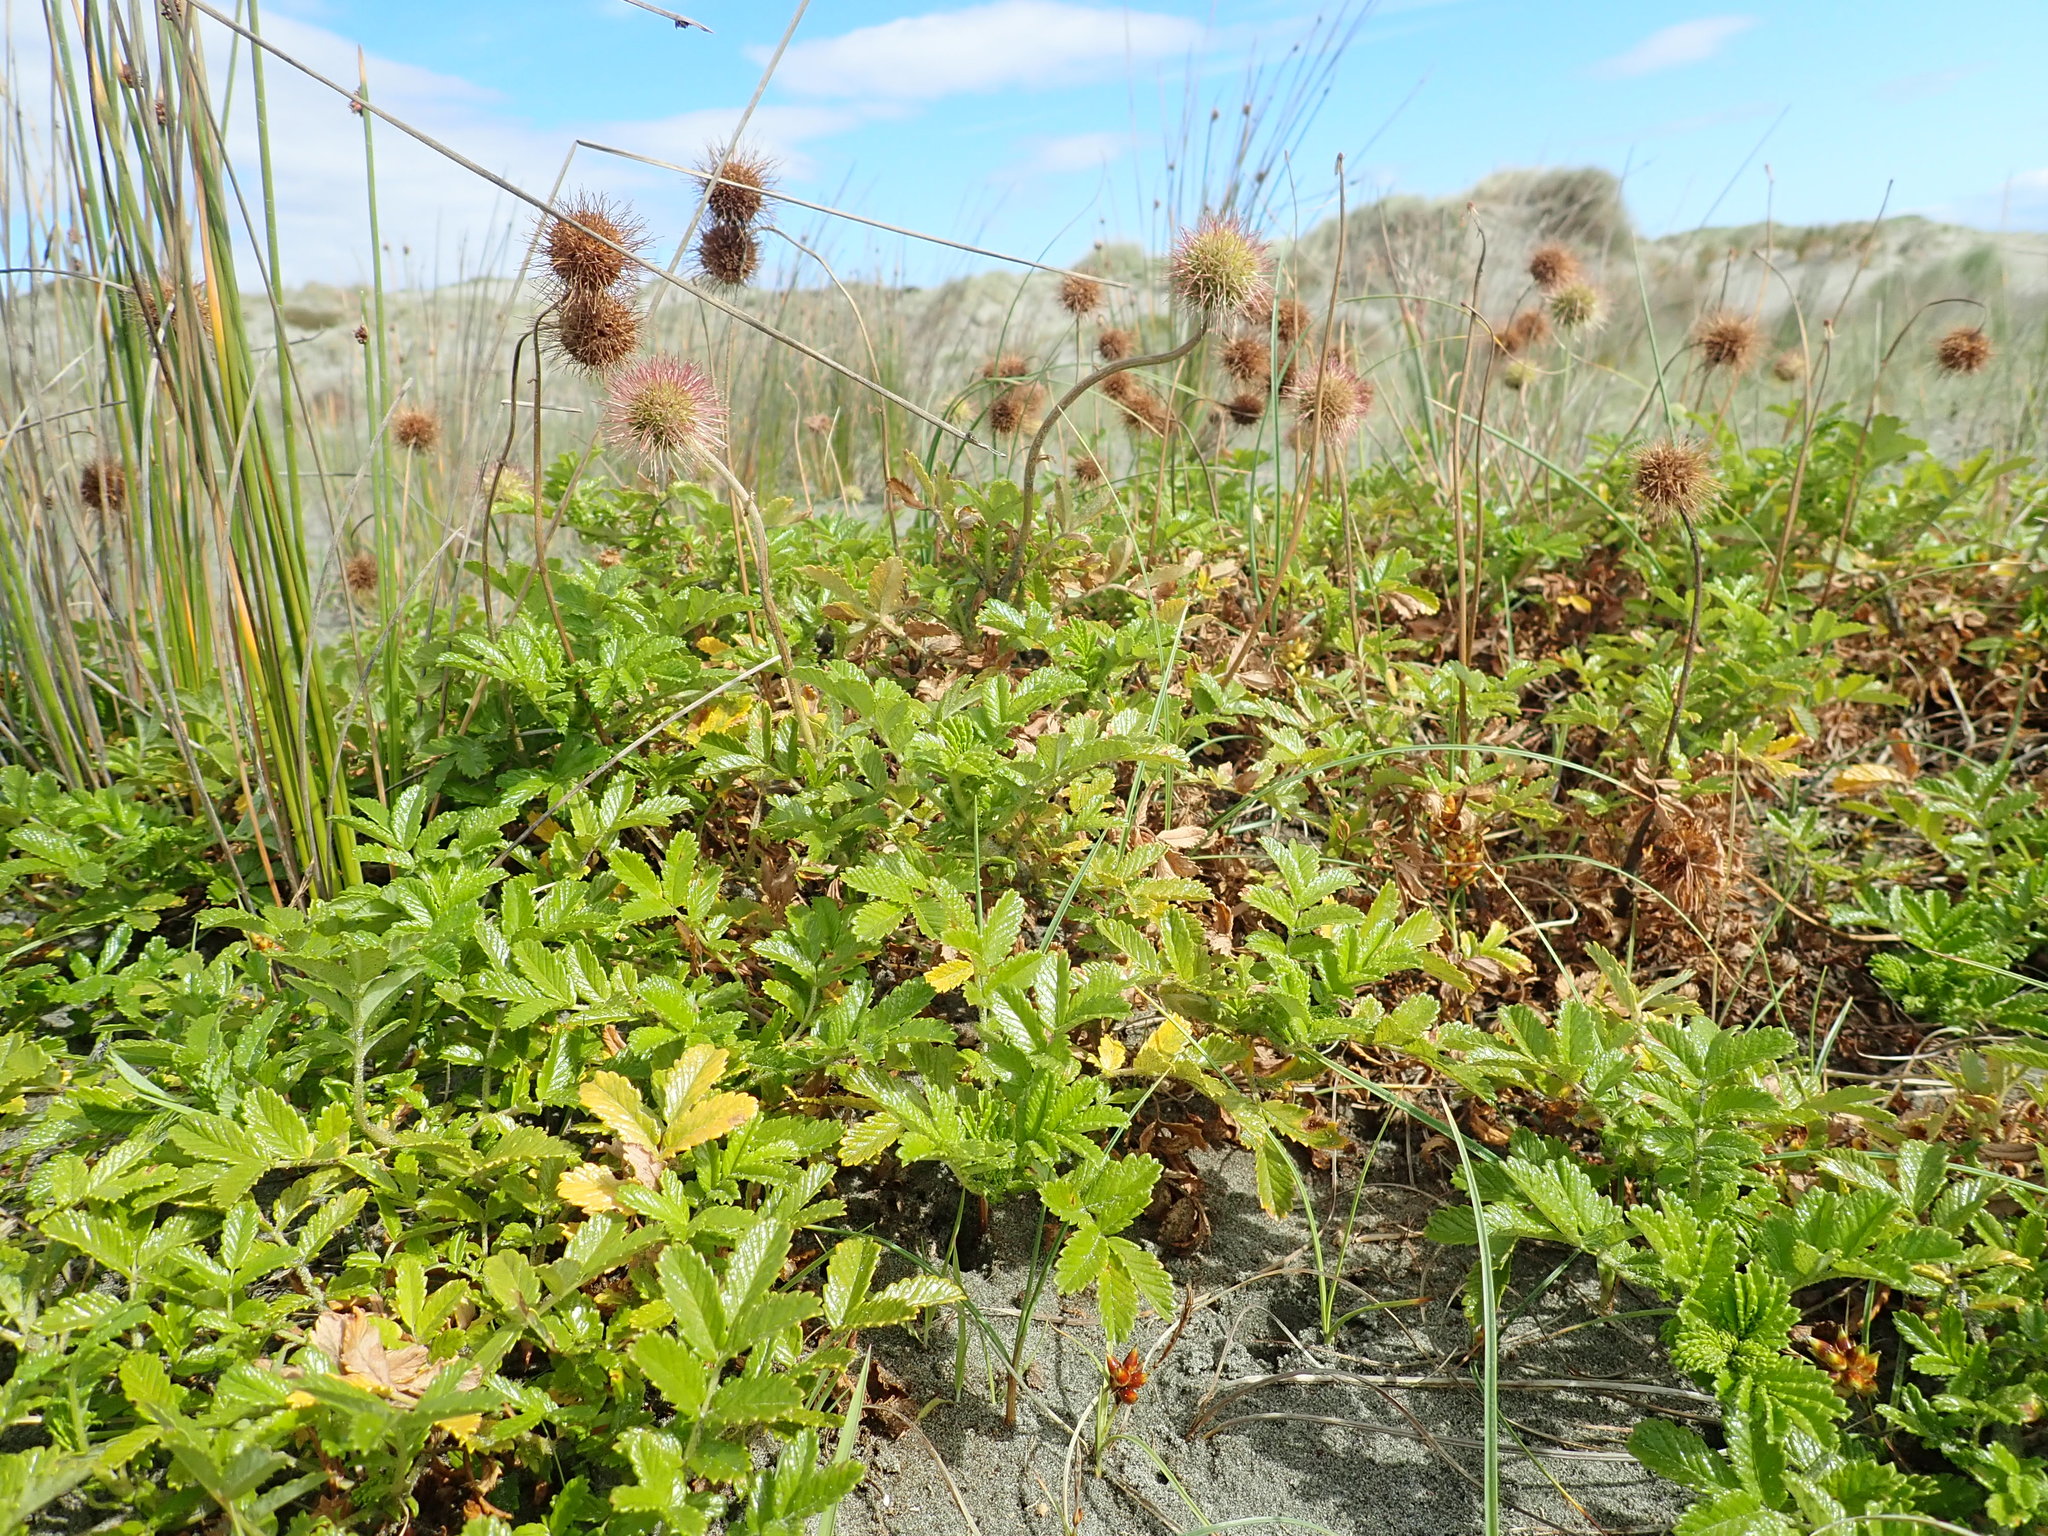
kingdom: Plantae
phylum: Tracheophyta
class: Magnoliopsida
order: Rosales
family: Rosaceae
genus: Acaena
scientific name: Acaena novae-zelandiae
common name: Pirri-pirri-bur
